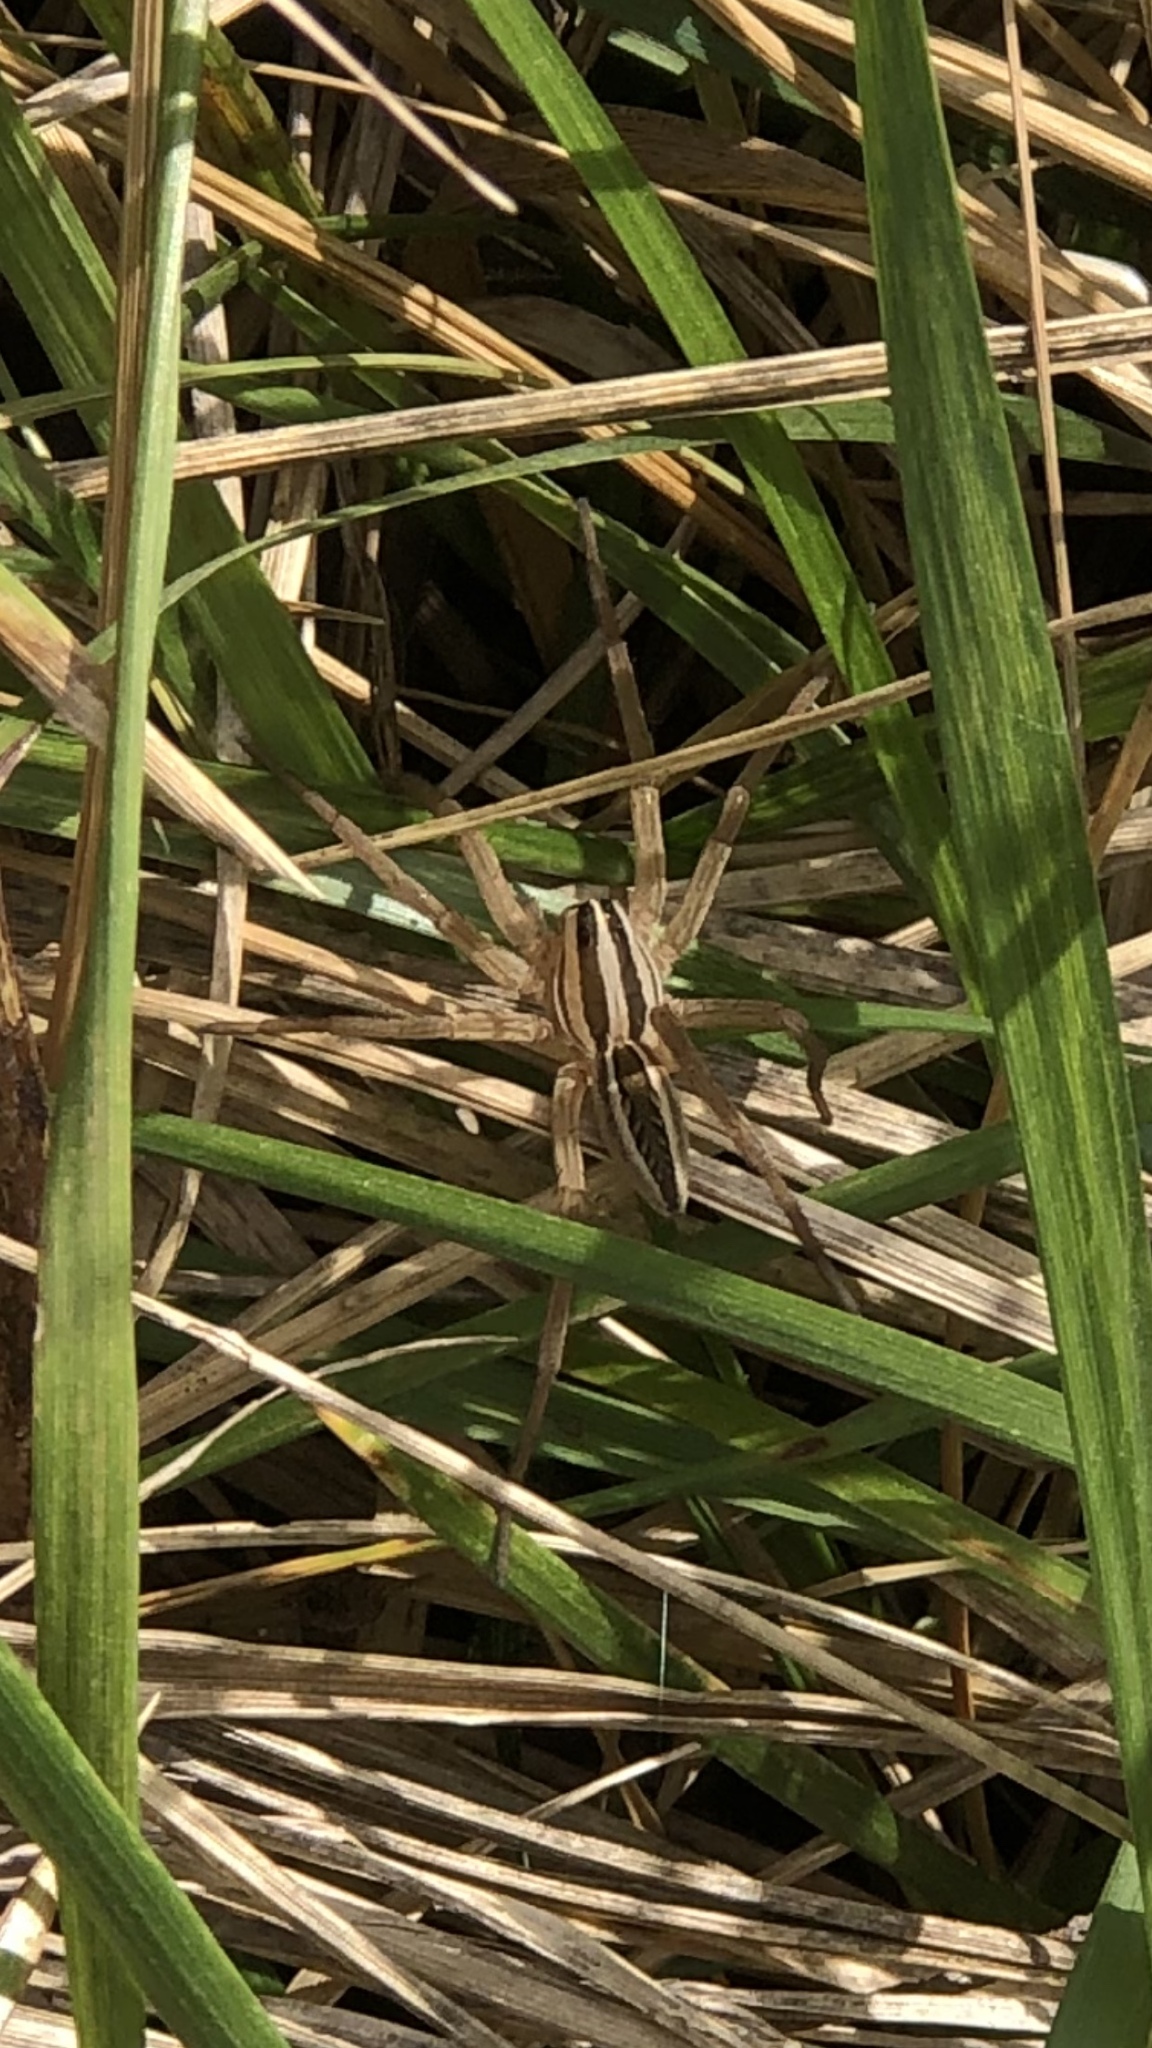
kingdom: Animalia
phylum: Arthropoda
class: Arachnida
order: Araneae
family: Lycosidae
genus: Rabidosa
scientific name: Rabidosa rabida
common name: Rabid wolf spider
